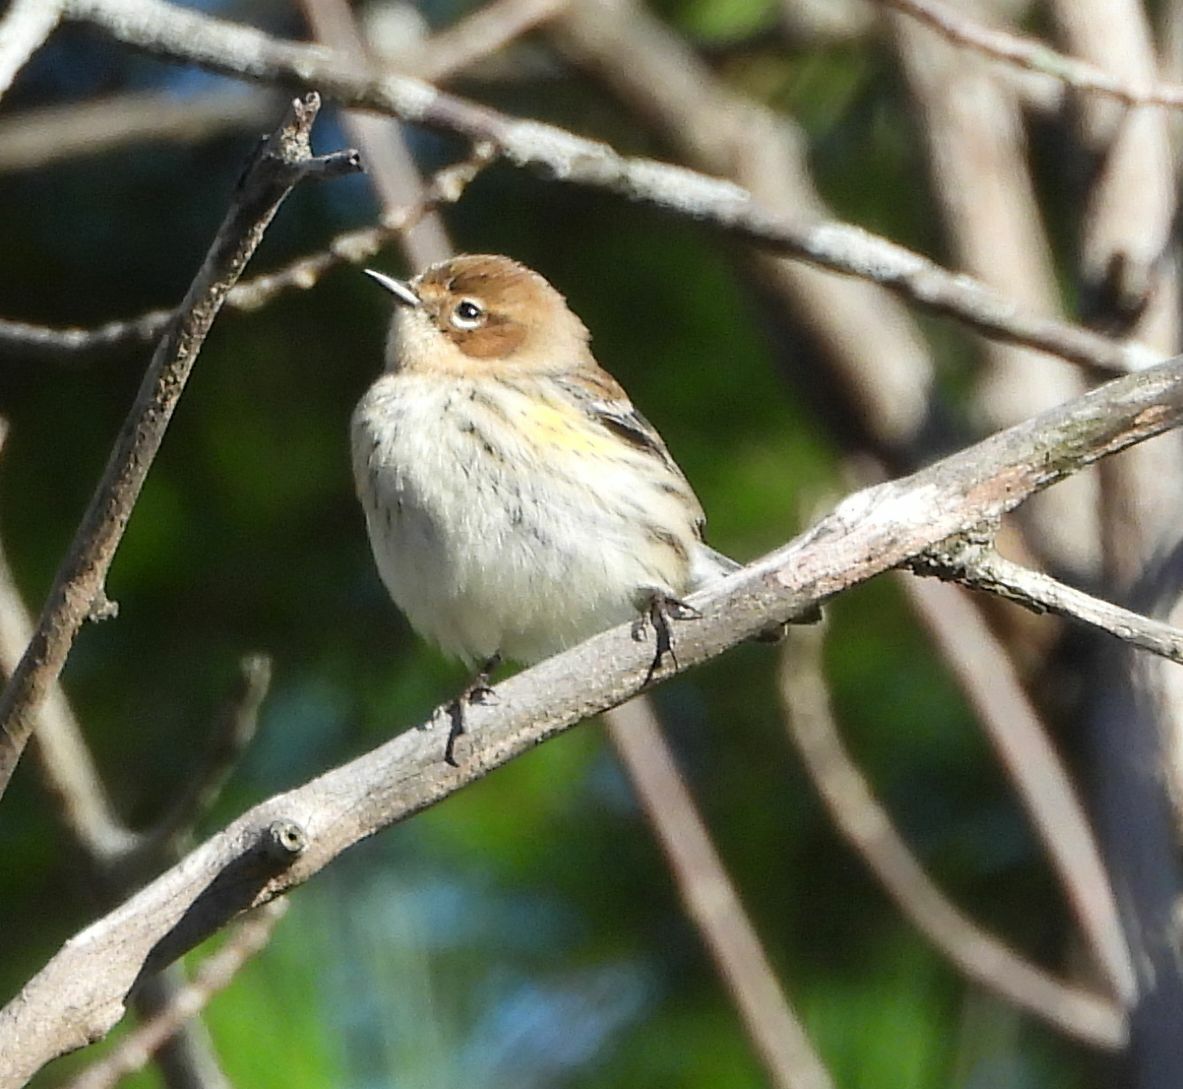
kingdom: Animalia
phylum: Chordata
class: Aves
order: Passeriformes
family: Parulidae
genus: Setophaga
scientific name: Setophaga coronata
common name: Myrtle warbler
